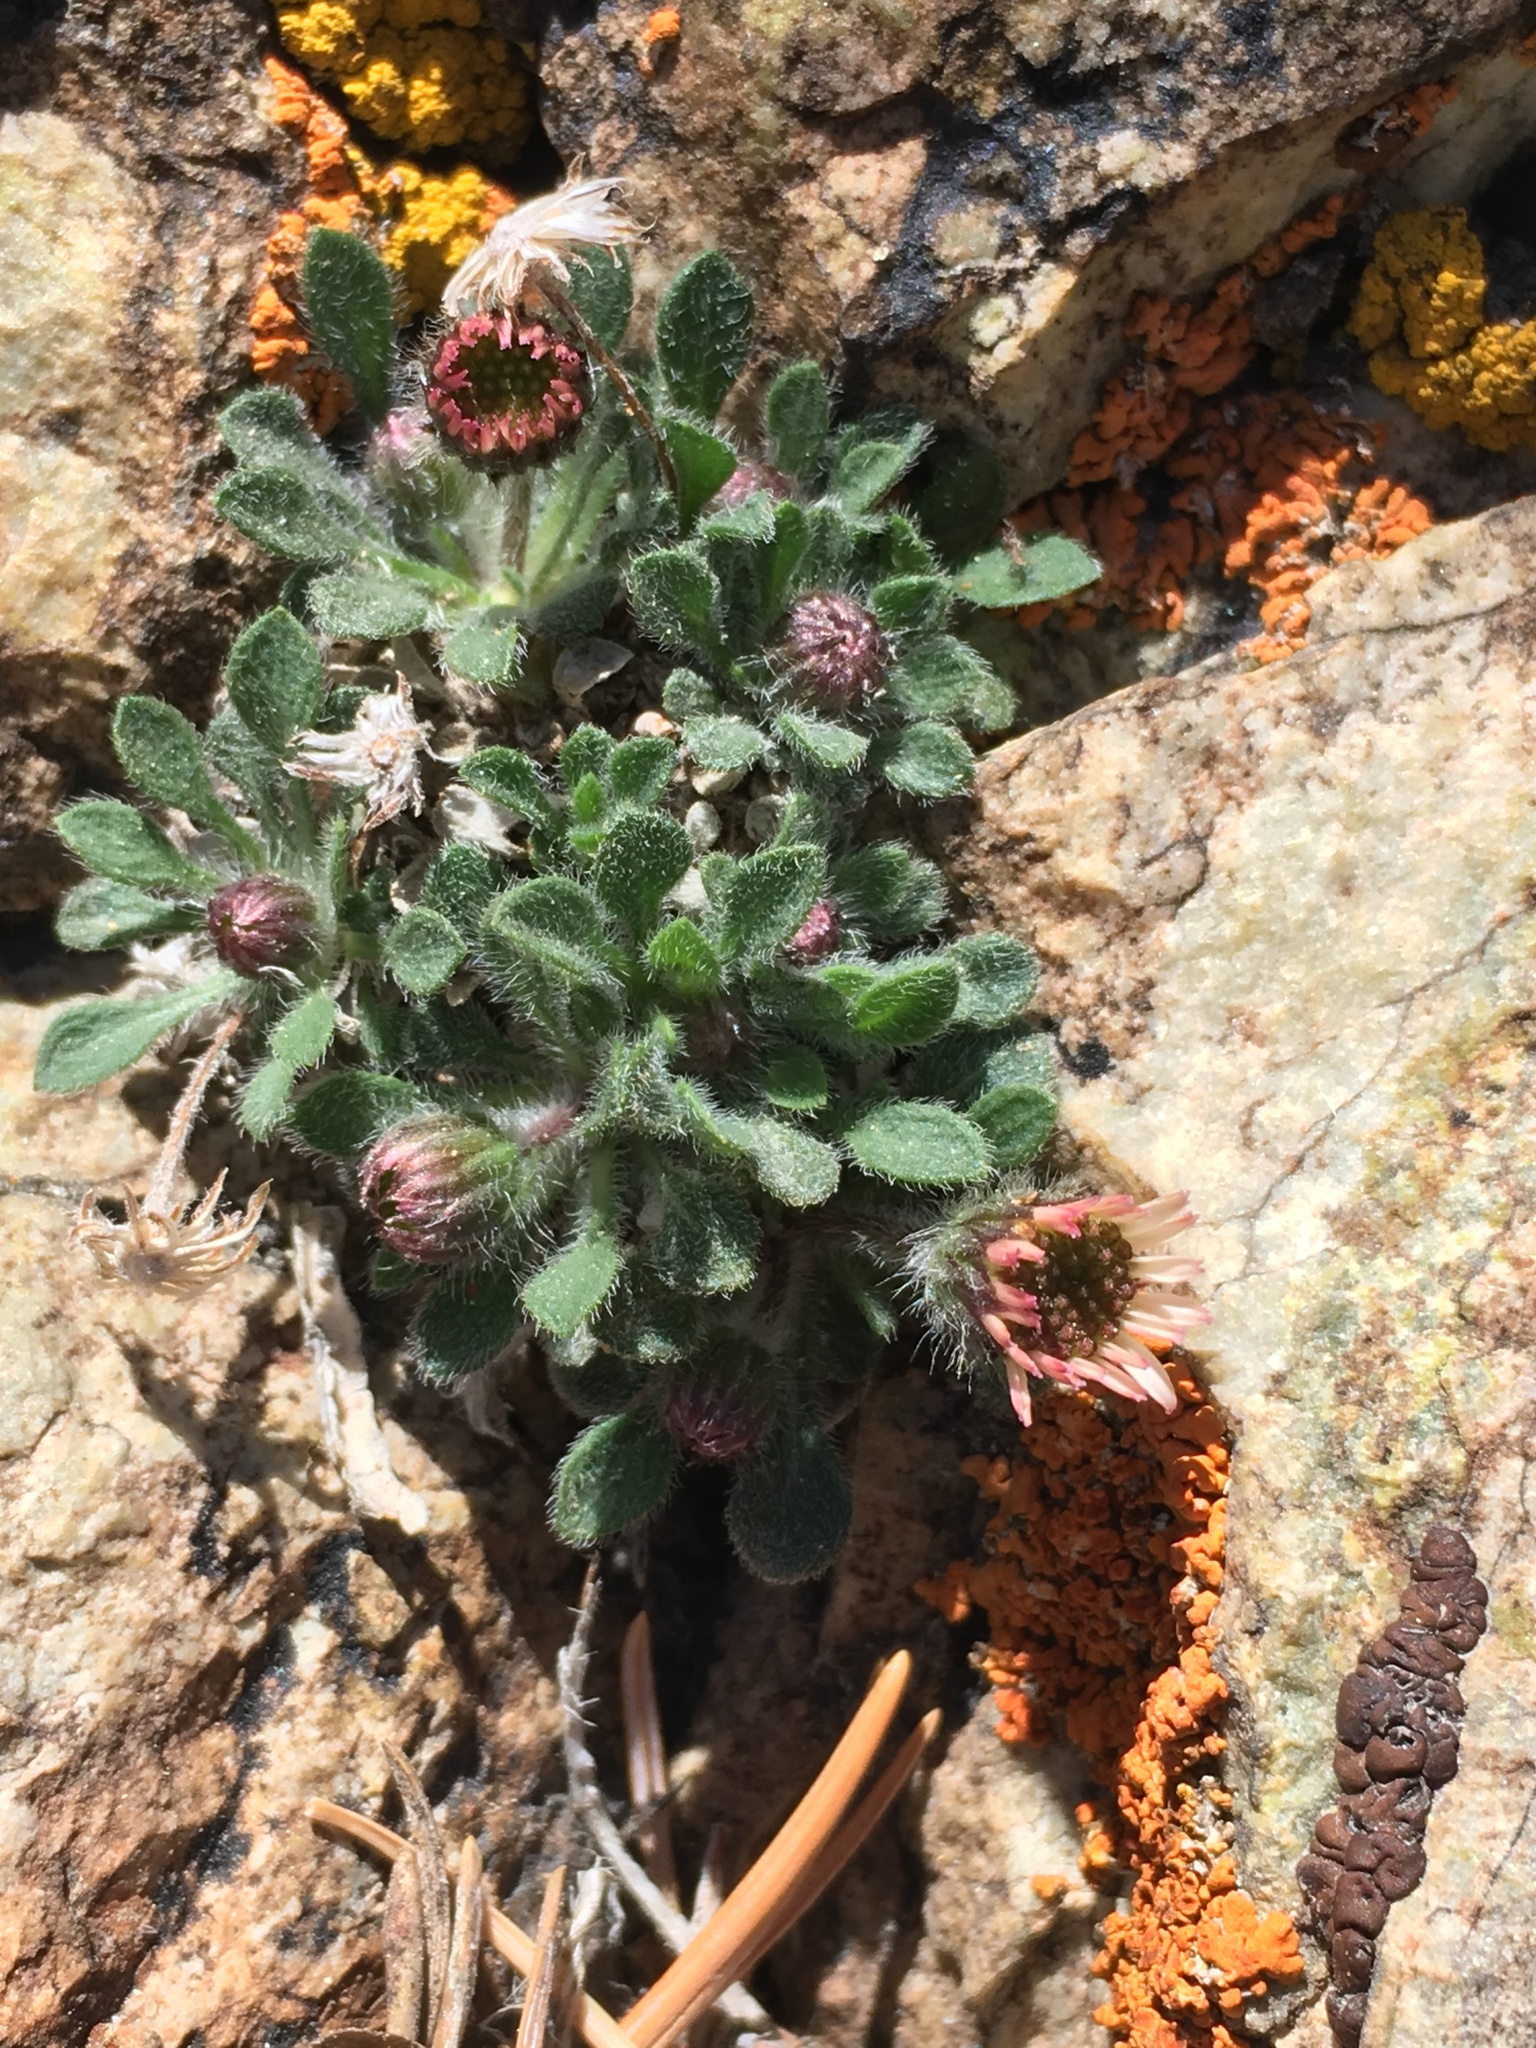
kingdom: Plantae
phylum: Tracheophyta
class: Magnoliopsida
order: Asterales
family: Asteraceae
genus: Erigeron
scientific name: Erigeron uncialis
